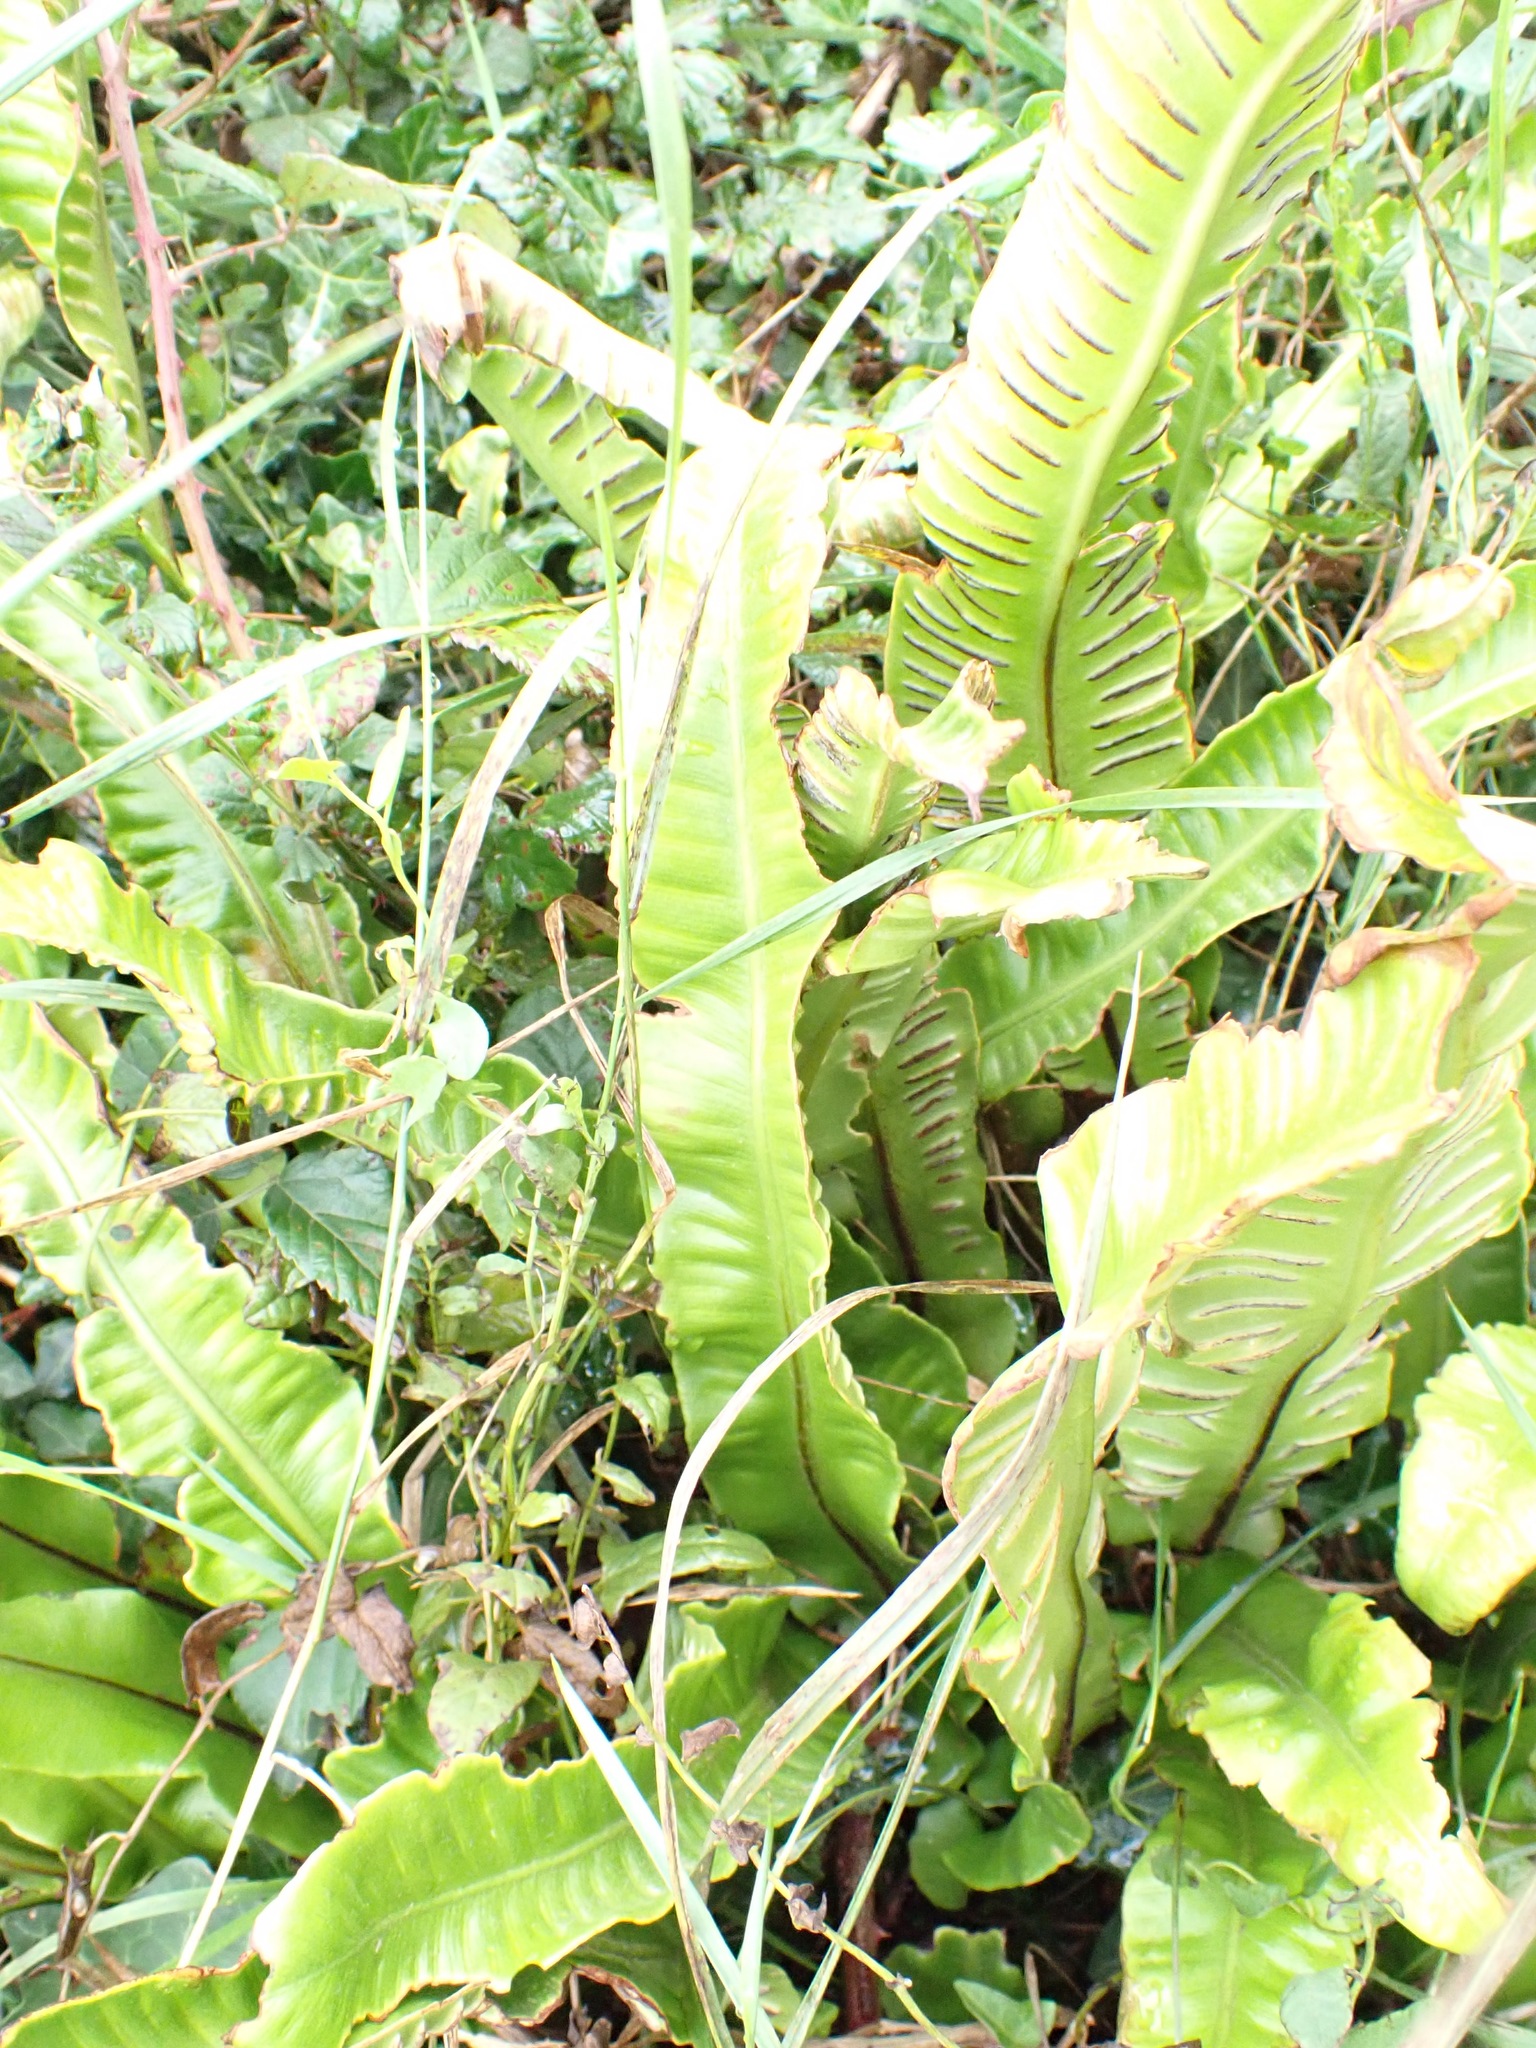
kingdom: Plantae
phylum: Tracheophyta
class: Polypodiopsida
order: Polypodiales
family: Aspleniaceae
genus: Asplenium
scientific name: Asplenium scolopendrium
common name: Hart's-tongue fern
